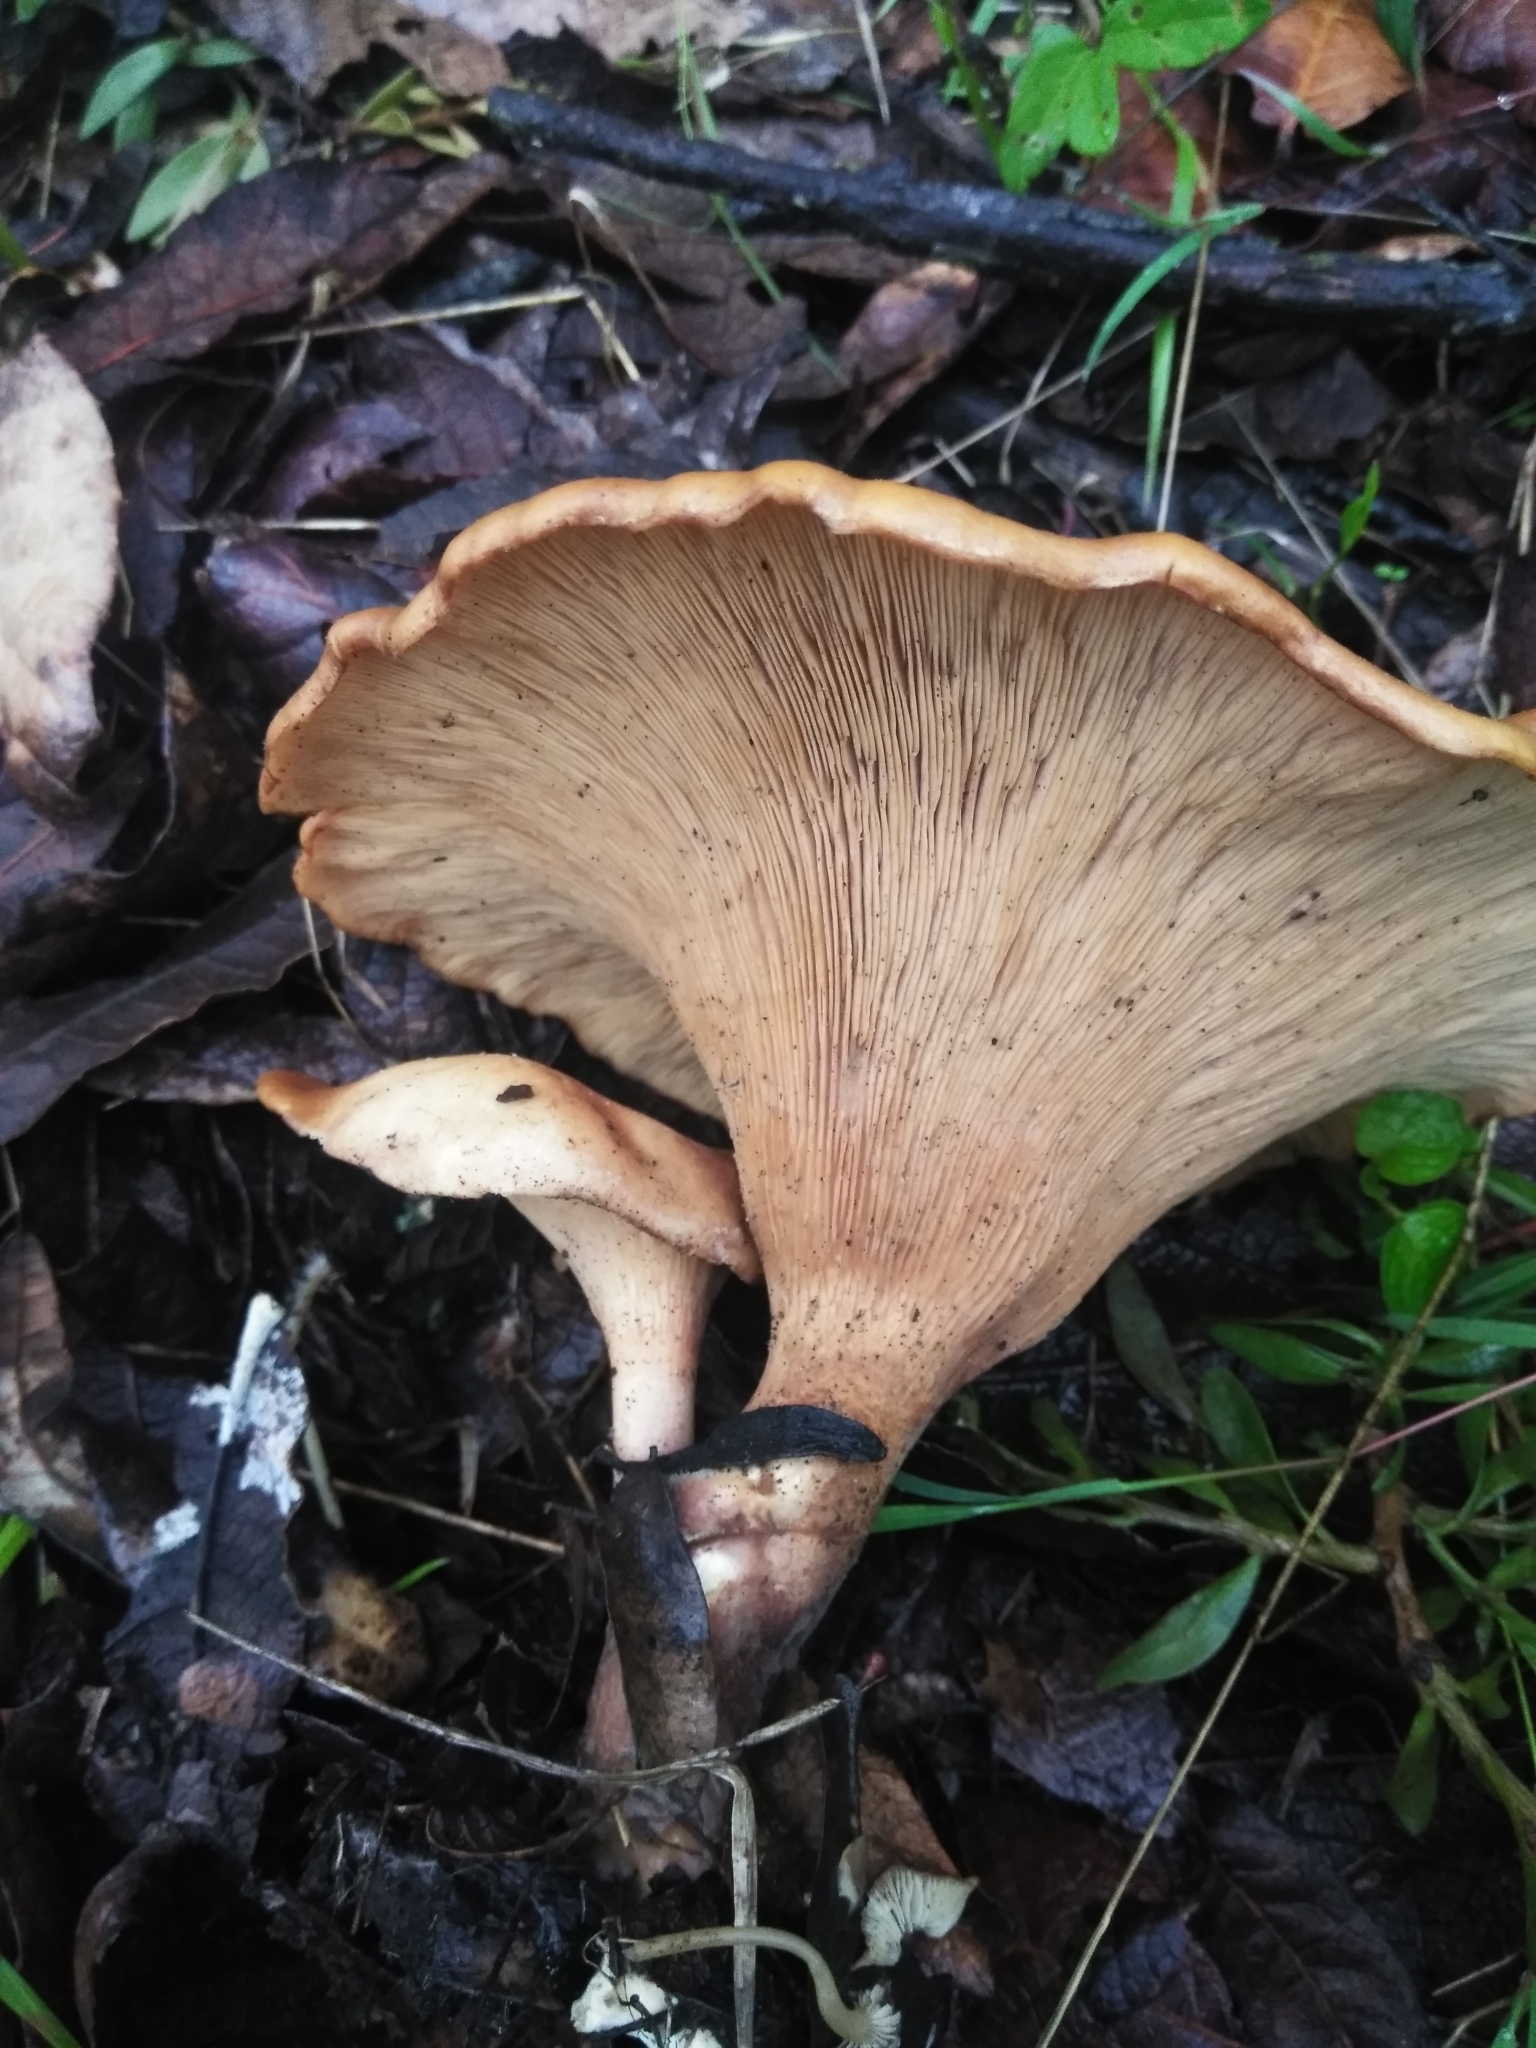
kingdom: Fungi
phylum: Basidiomycota
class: Agaricomycetes
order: Agaricales
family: Tricholomataceae
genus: Infundibulicybe
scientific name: Infundibulicybe gibba
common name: Common funnel
